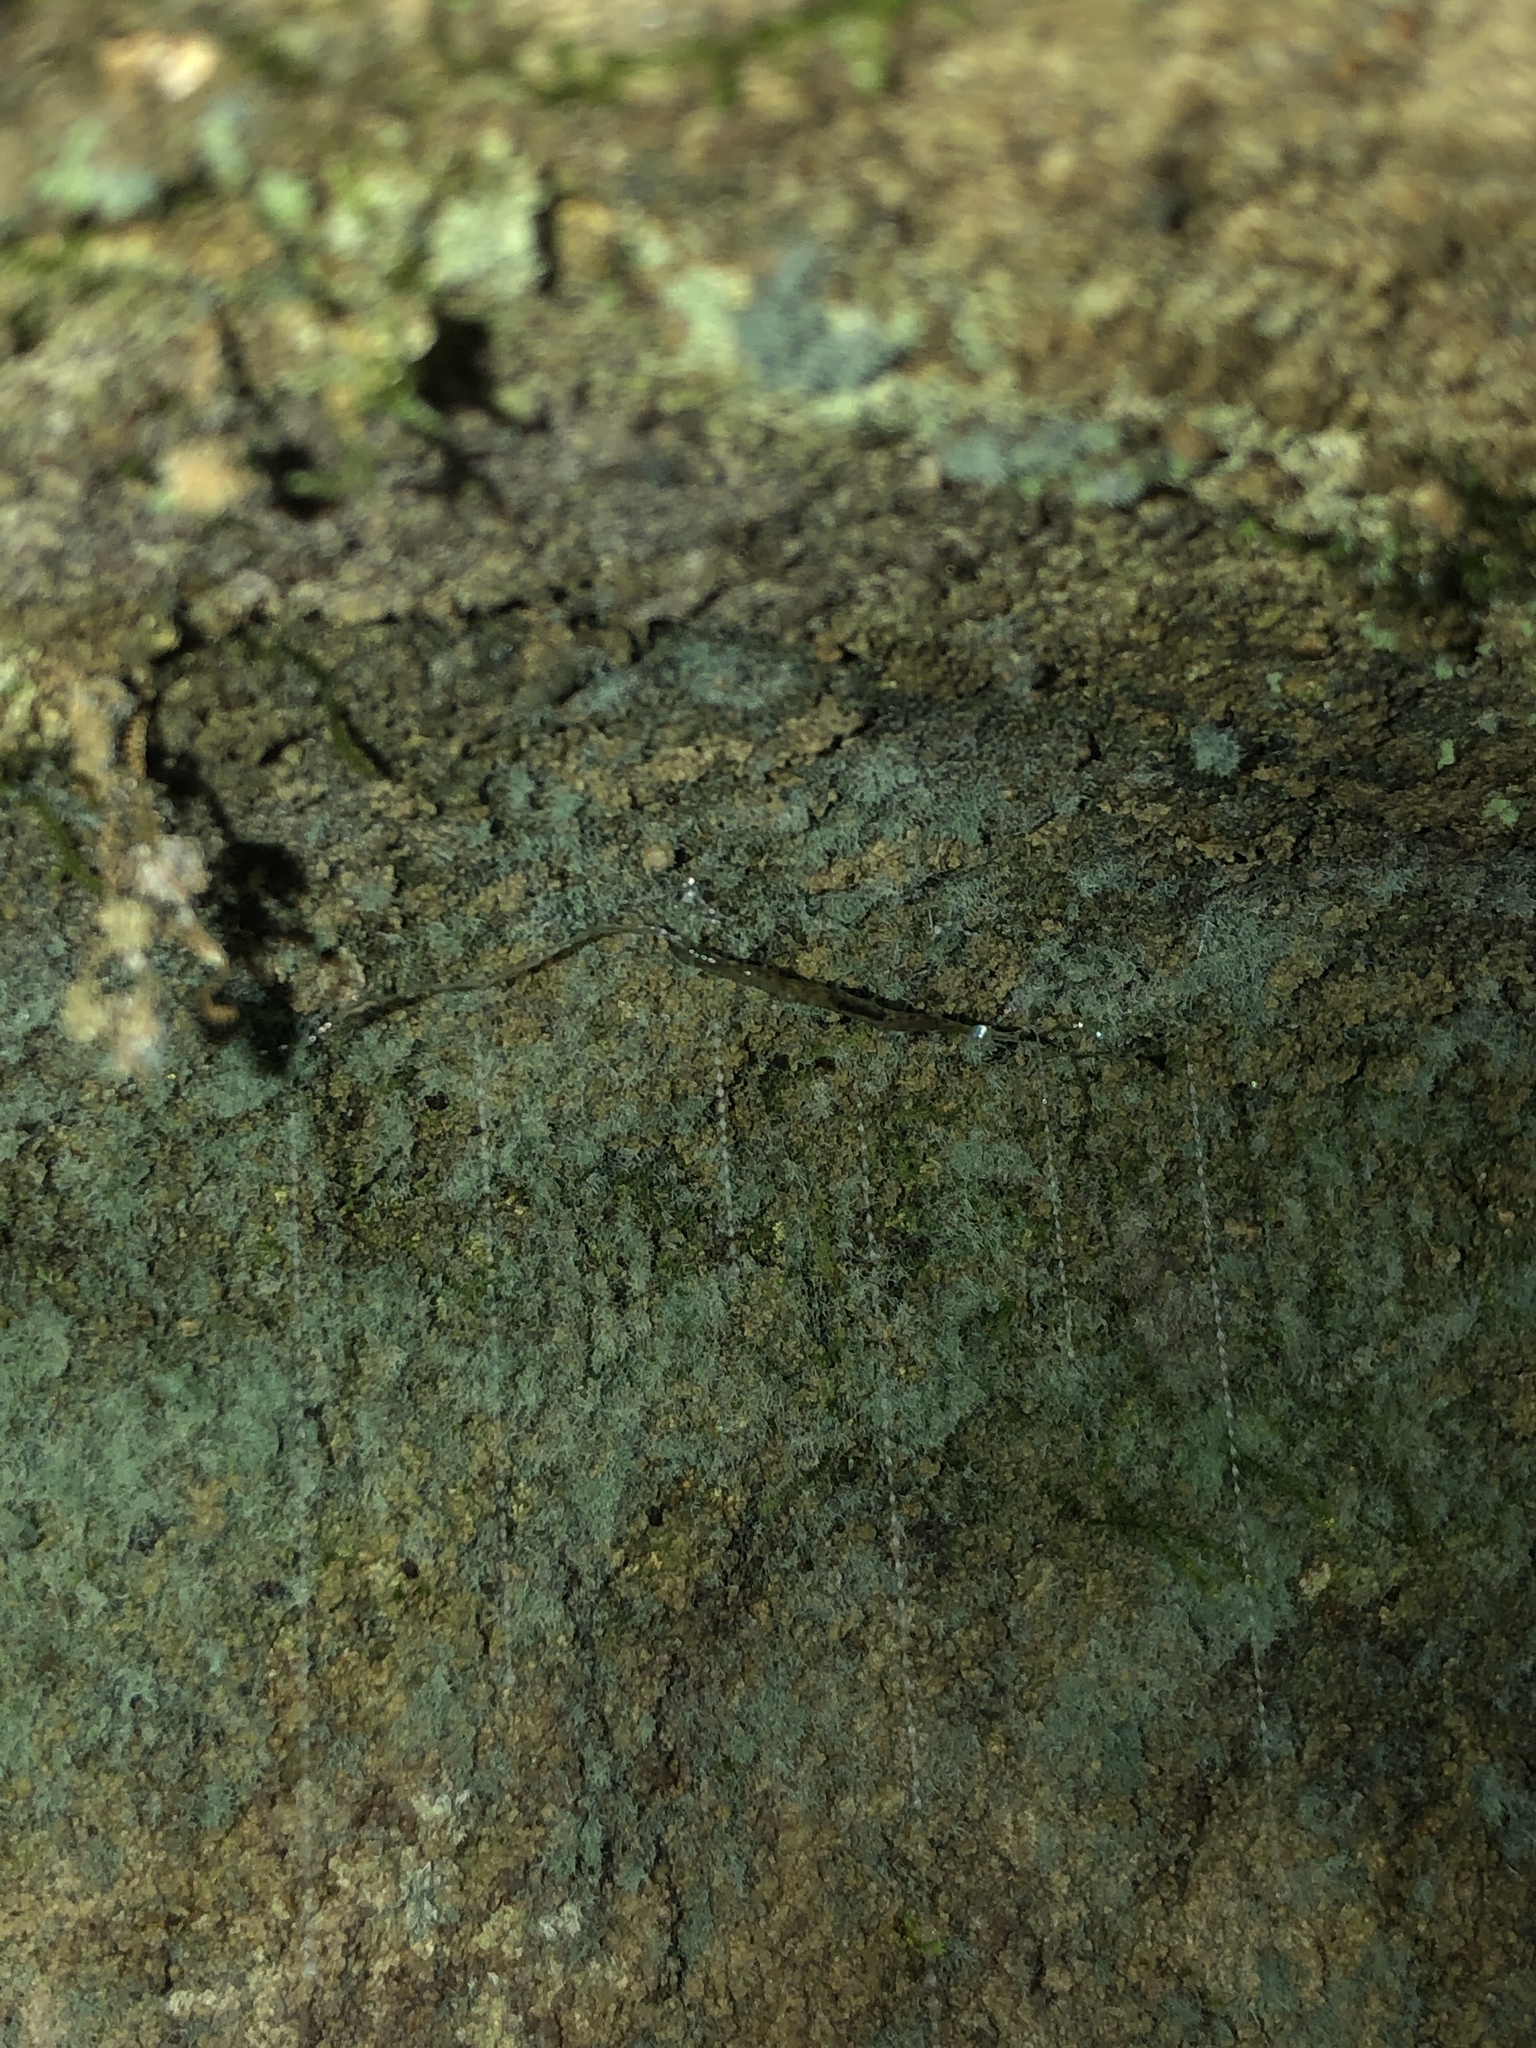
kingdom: Animalia
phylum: Arthropoda
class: Insecta
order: Diptera
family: Keroplatidae
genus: Arachnocampa
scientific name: Arachnocampa luminosa
